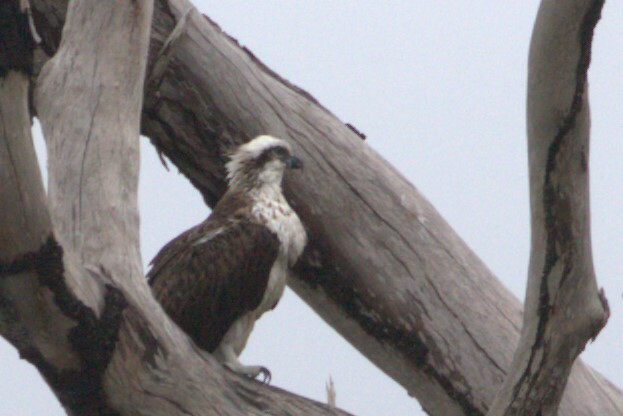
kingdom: Animalia
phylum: Chordata
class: Aves
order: Pelecaniformes
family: Ardeidae
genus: Butorides
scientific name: Butorides striata
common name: Striated heron
